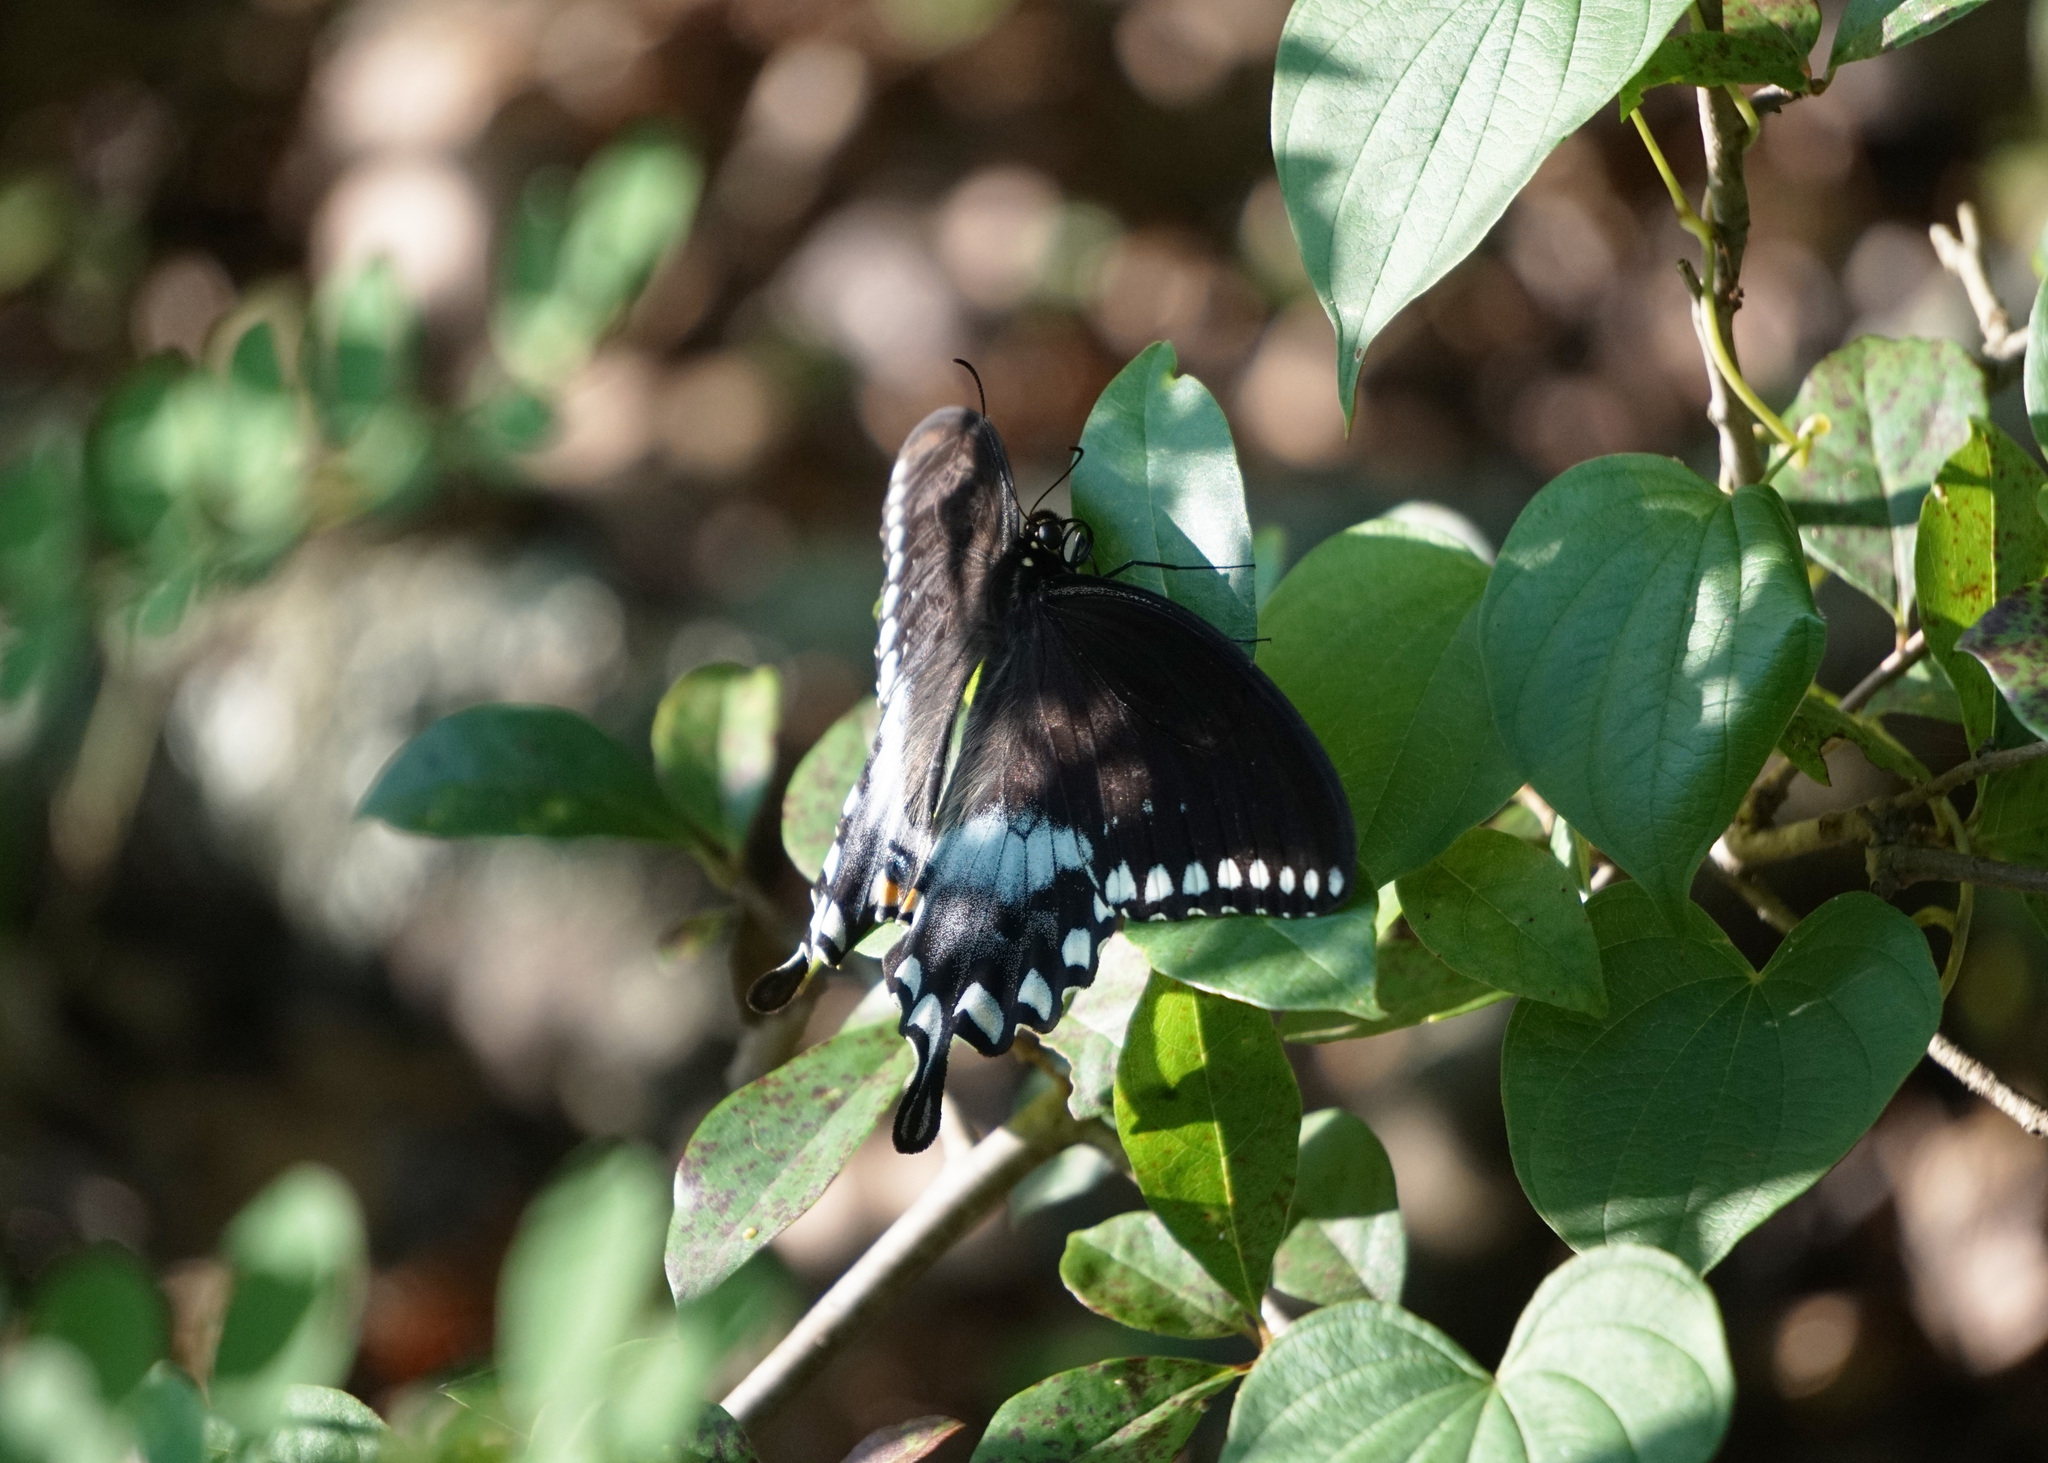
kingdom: Animalia
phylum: Arthropoda
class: Insecta
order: Lepidoptera
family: Papilionidae
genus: Papilio
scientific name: Papilio troilus
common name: Spicebush swallowtail
